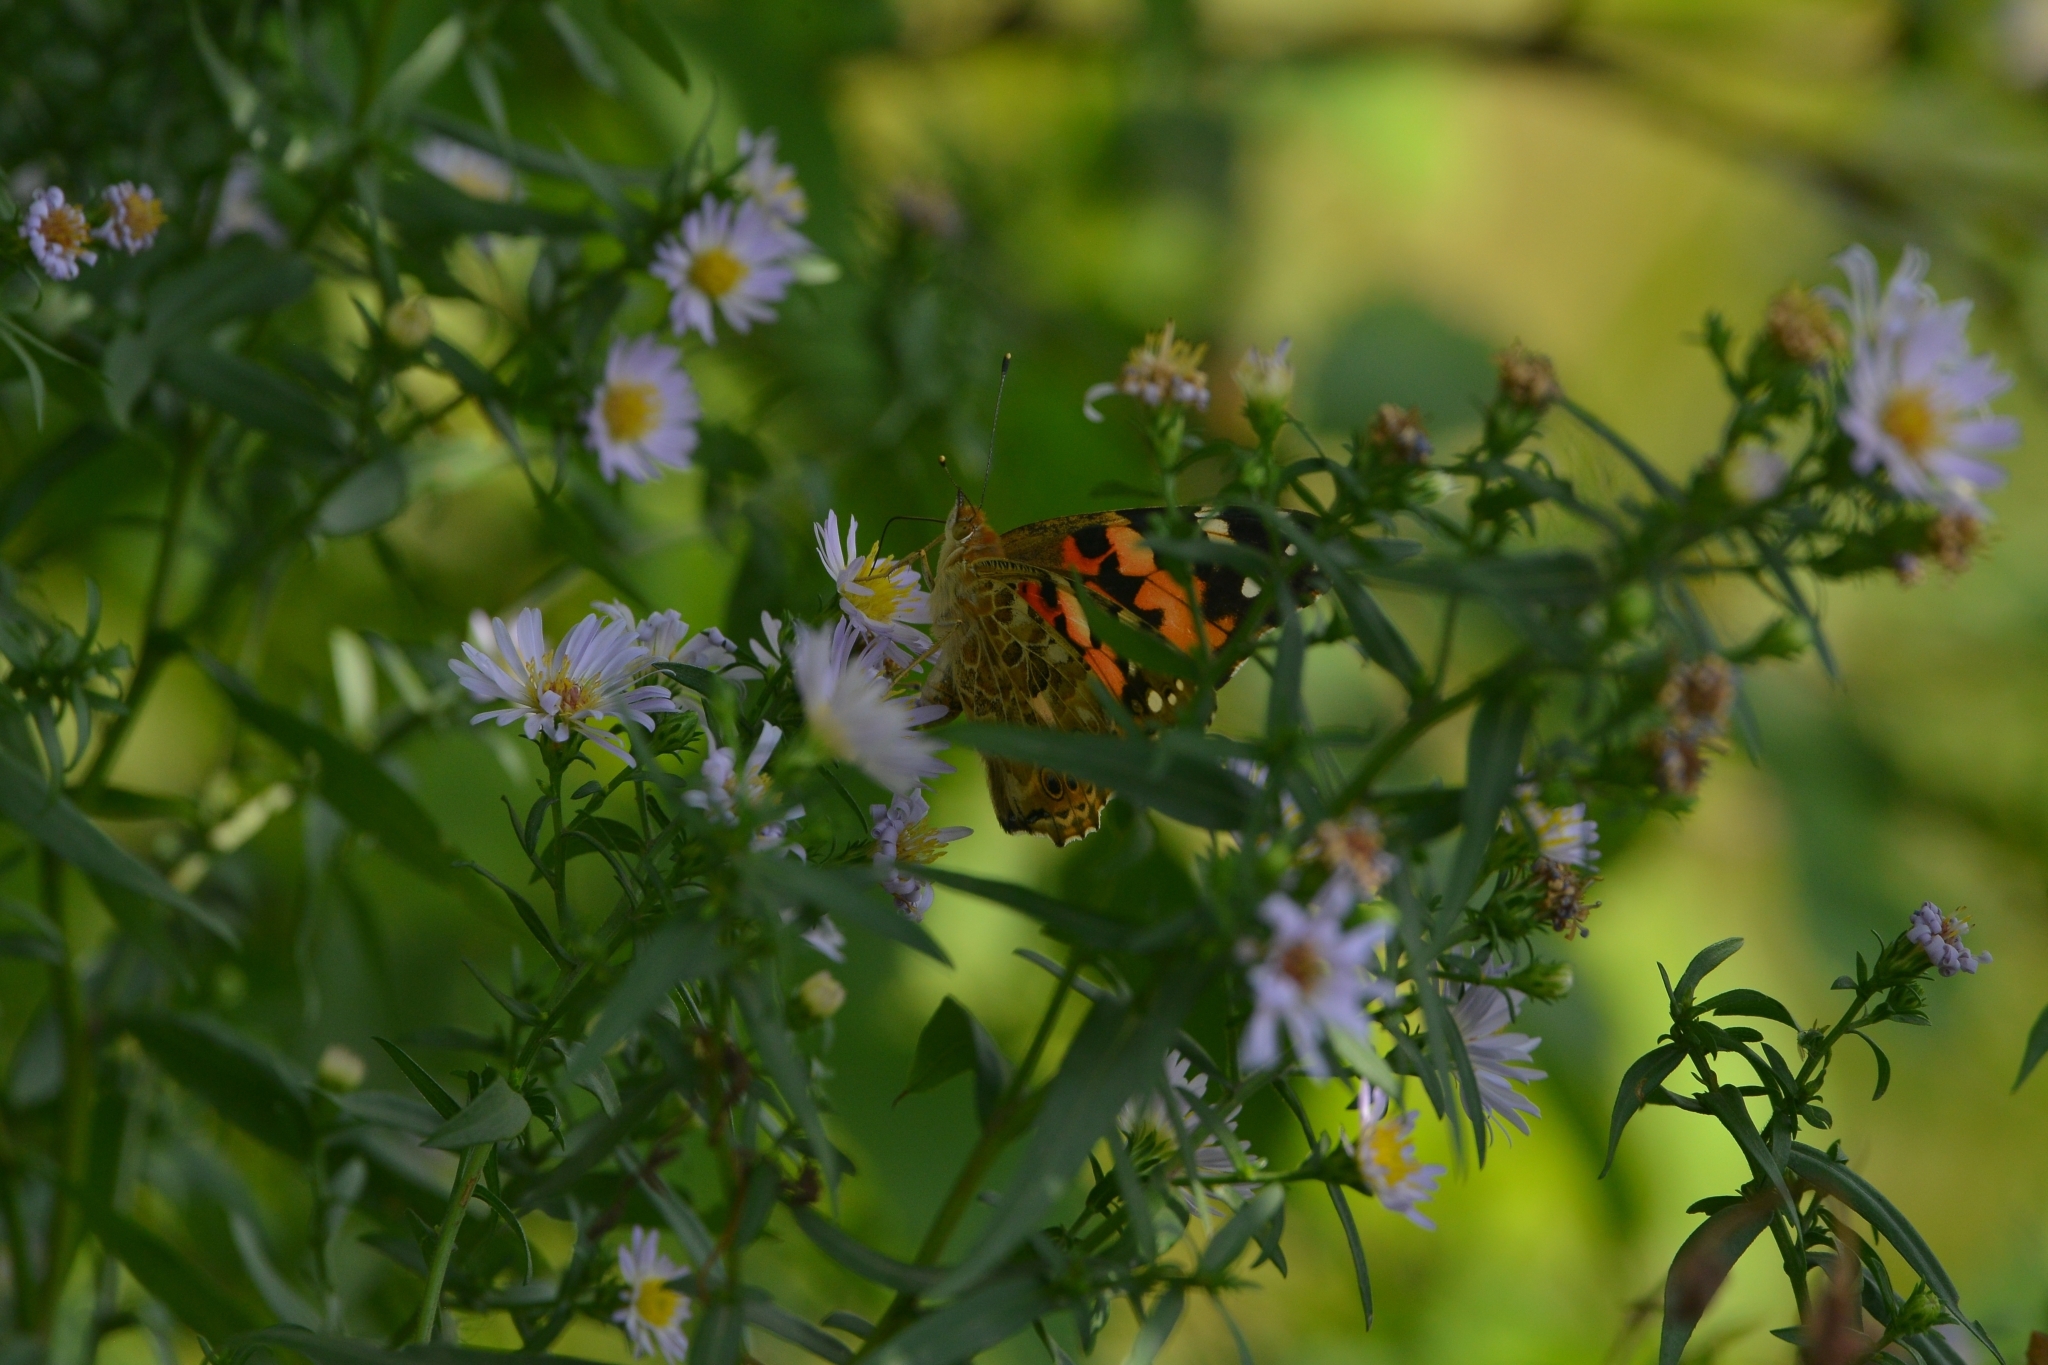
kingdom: Animalia
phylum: Arthropoda
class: Insecta
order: Lepidoptera
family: Nymphalidae
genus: Vanessa
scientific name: Vanessa cardui
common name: Painted lady
